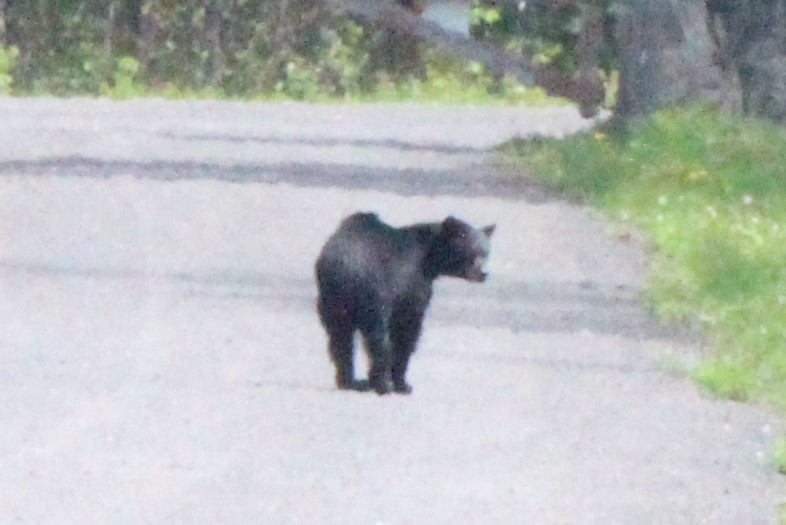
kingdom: Animalia
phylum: Chordata
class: Mammalia
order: Carnivora
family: Ursidae
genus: Ursus
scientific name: Ursus americanus
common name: American black bear
